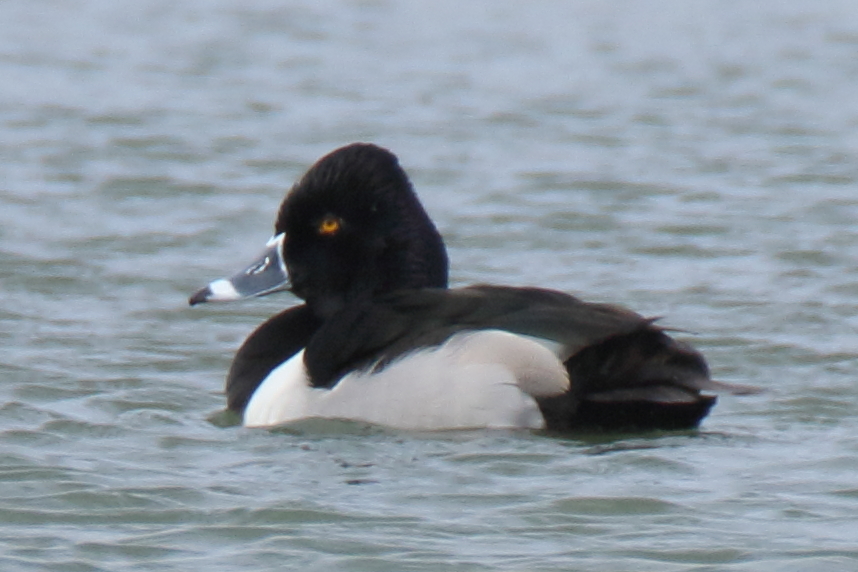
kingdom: Animalia
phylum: Chordata
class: Aves
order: Anseriformes
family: Anatidae
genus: Aythya
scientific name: Aythya collaris
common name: Ring-necked duck
